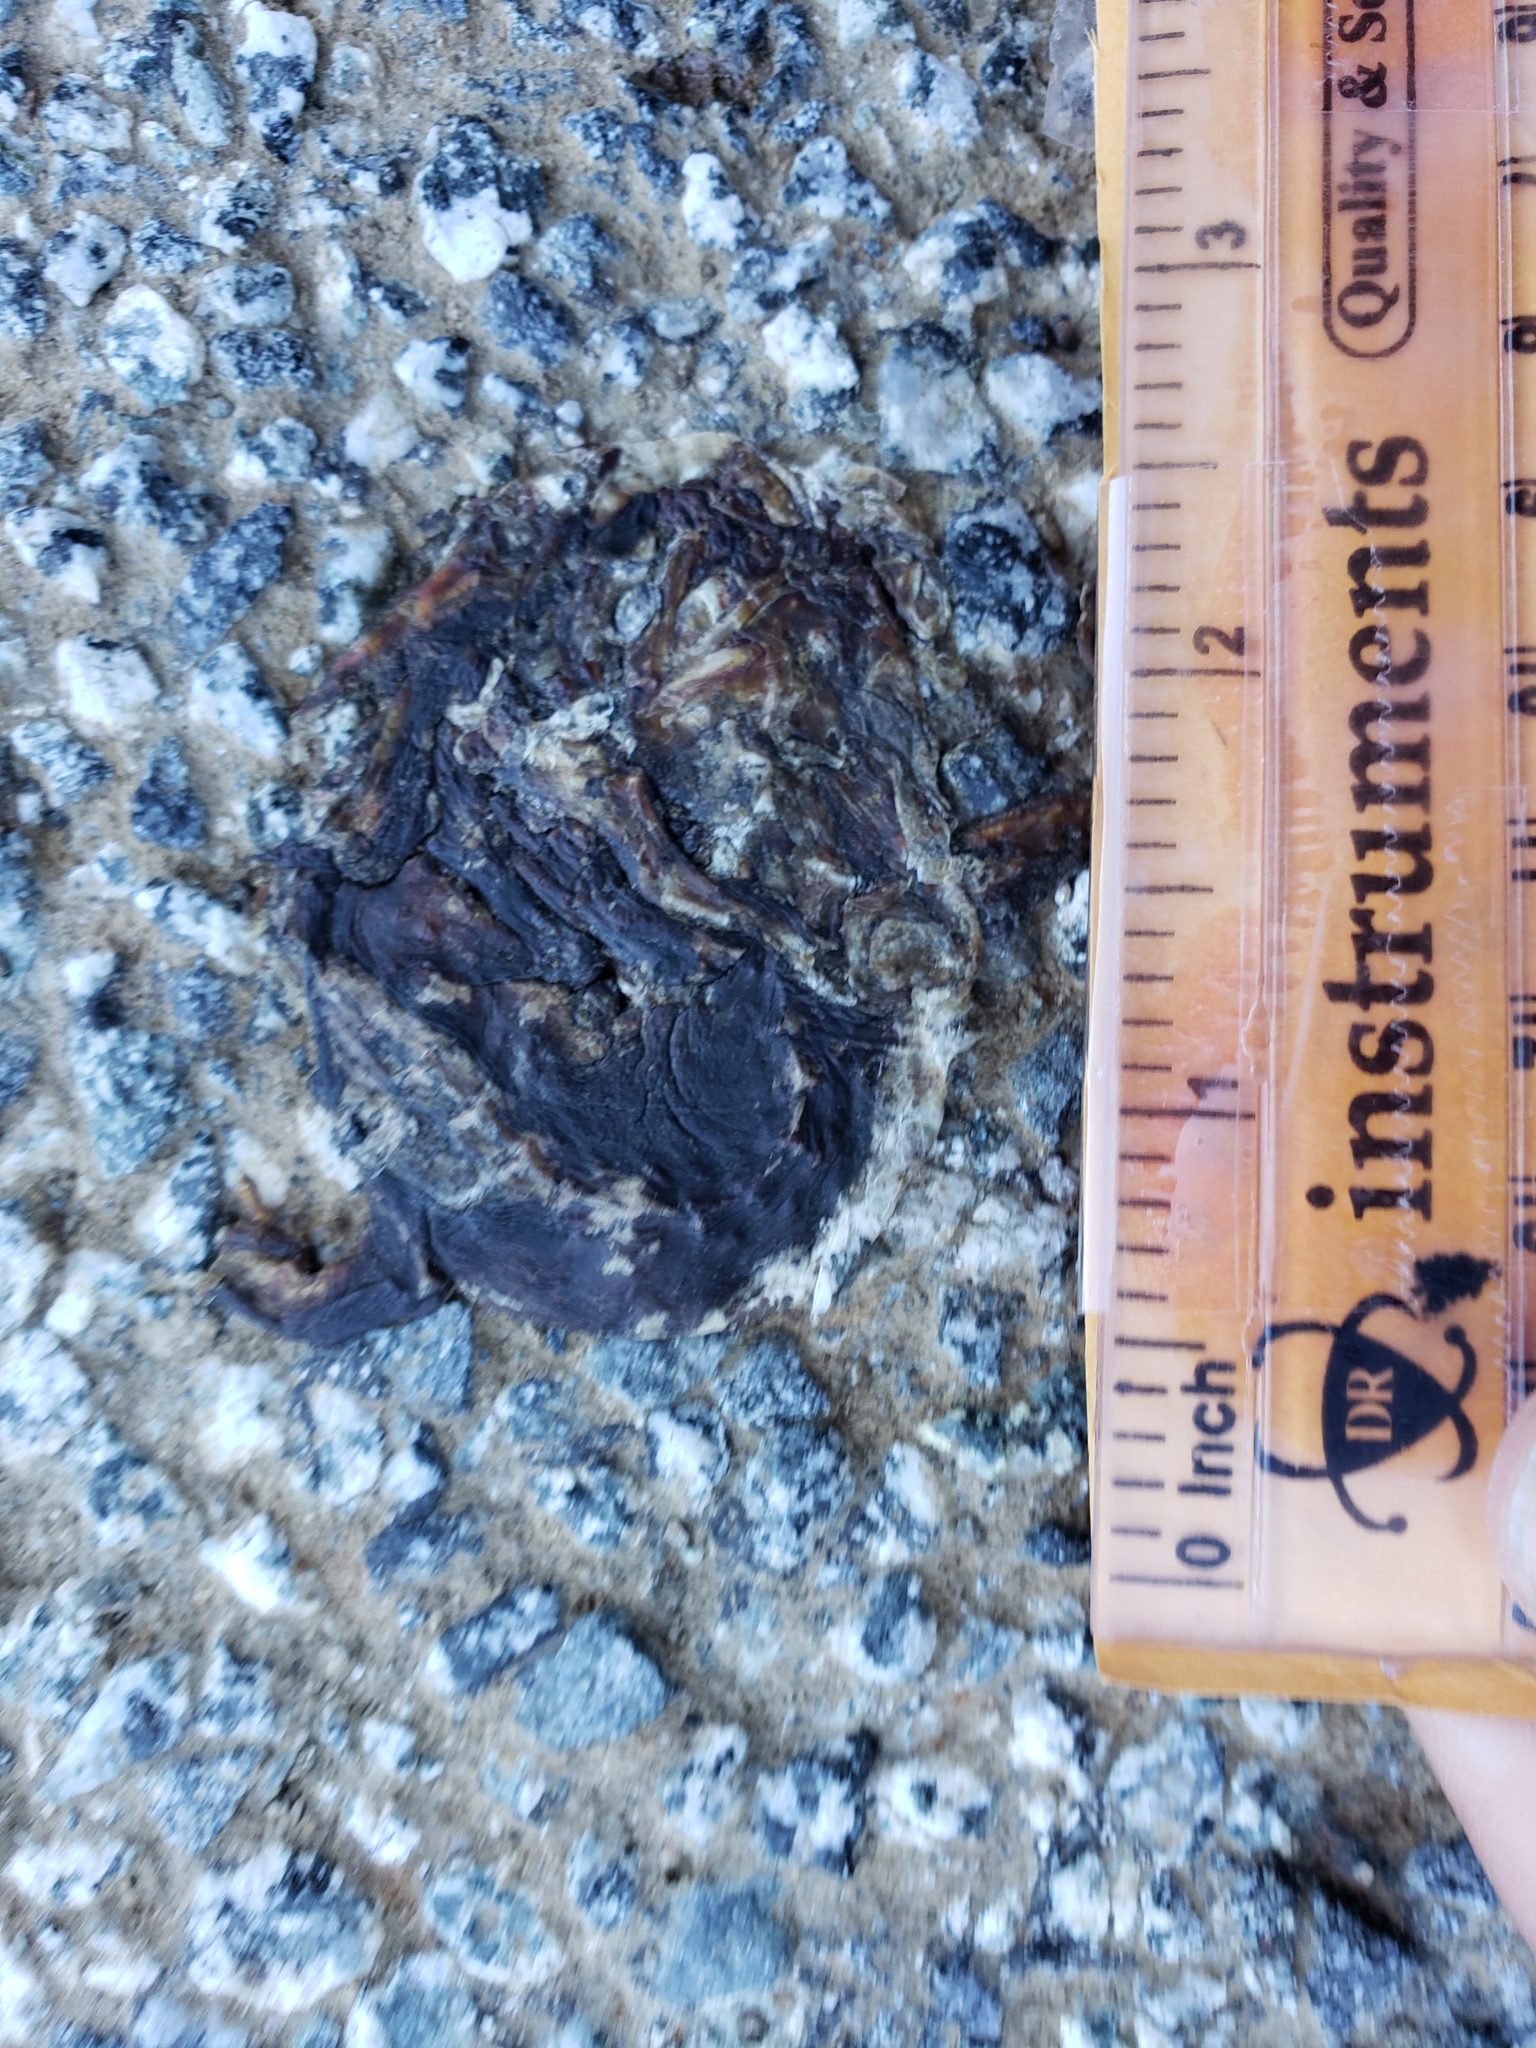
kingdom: Animalia
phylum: Chordata
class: Amphibia
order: Caudata
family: Salamandridae
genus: Taricha
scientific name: Taricha
